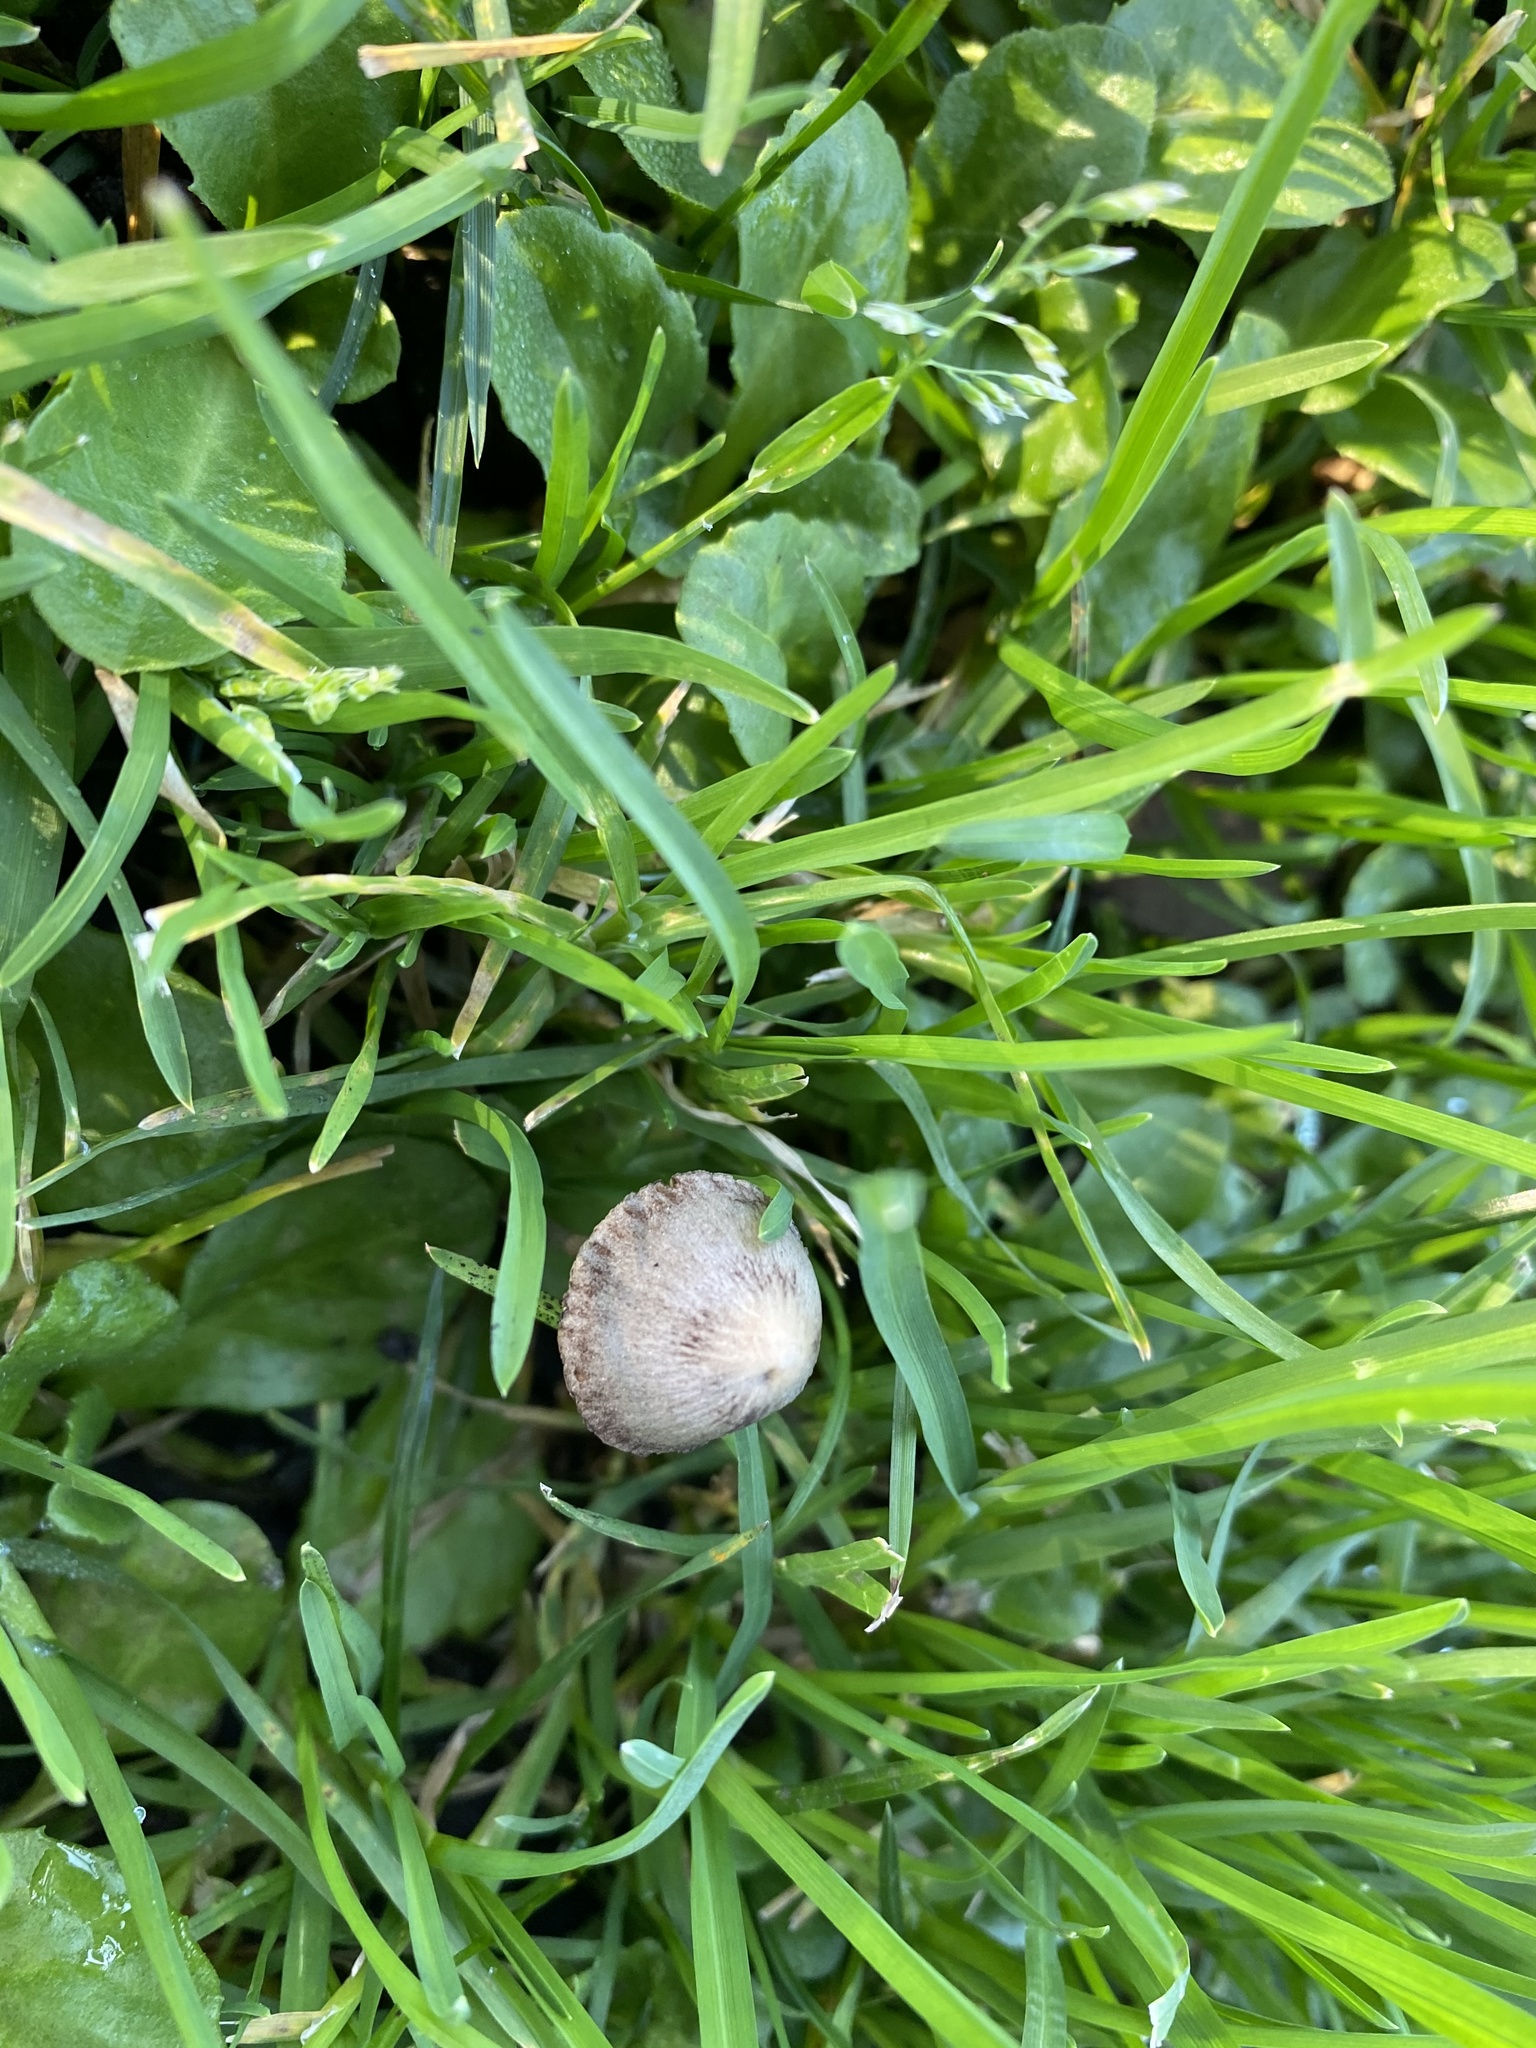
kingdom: Fungi
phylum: Basidiomycota
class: Agaricomycetes
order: Agaricales
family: Psathyrellaceae
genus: Psathyrella
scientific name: Psathyrella corrugis
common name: Red edge brittlestem
